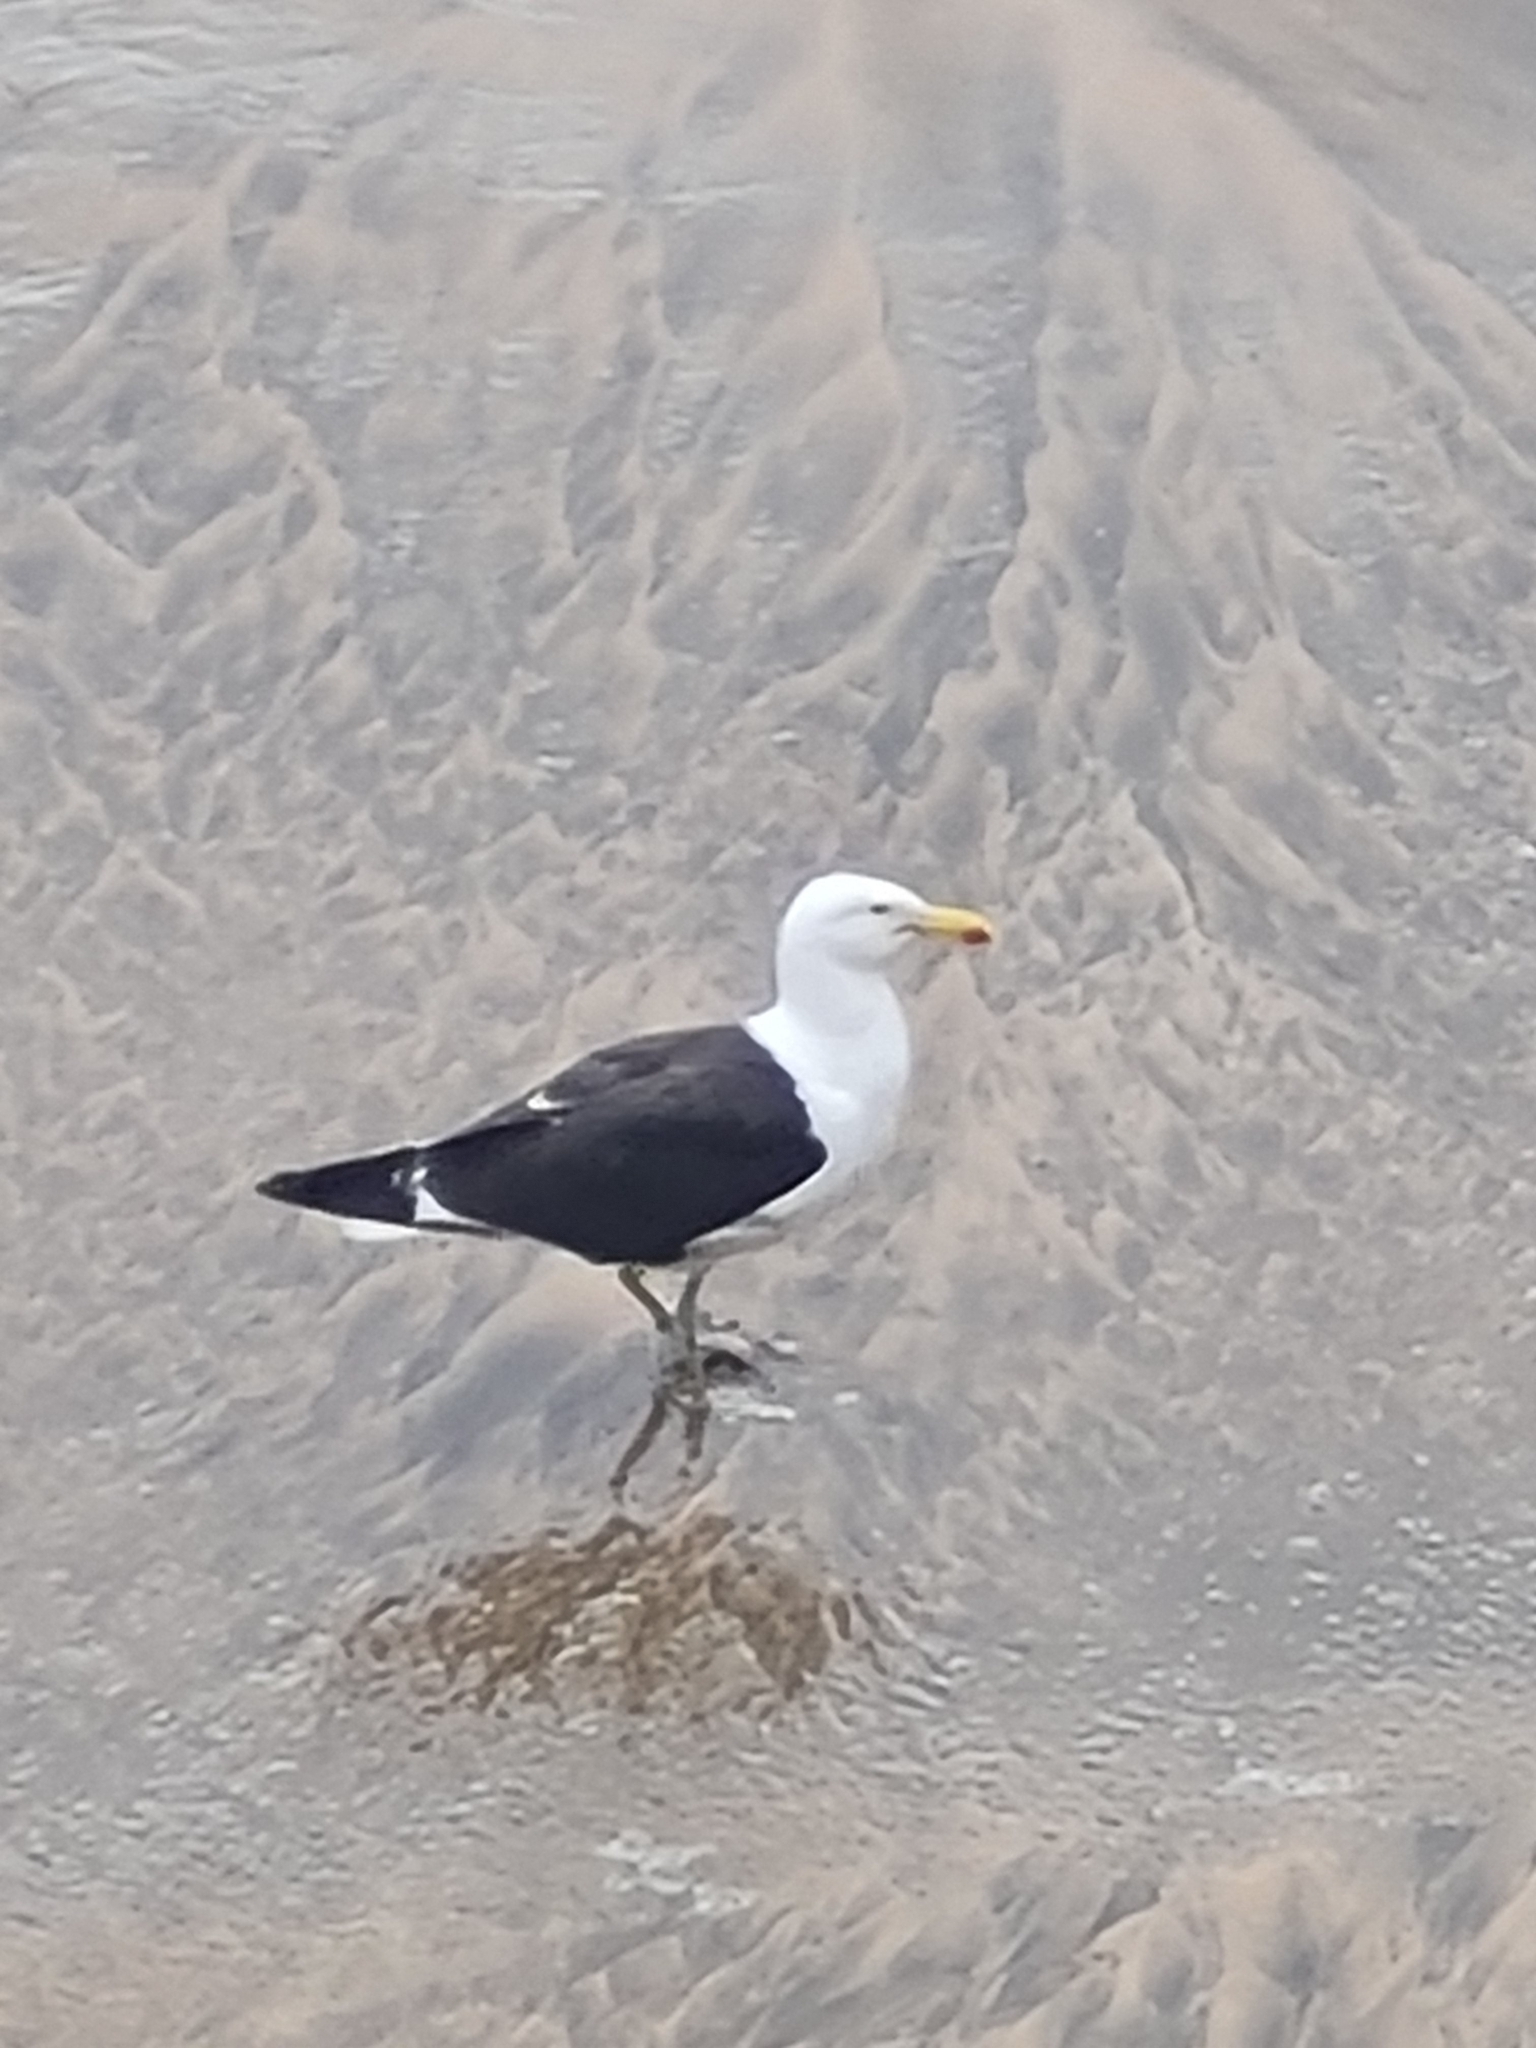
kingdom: Animalia
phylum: Chordata
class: Aves
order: Charadriiformes
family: Laridae
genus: Larus
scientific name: Larus dominicanus
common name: Kelp gull
